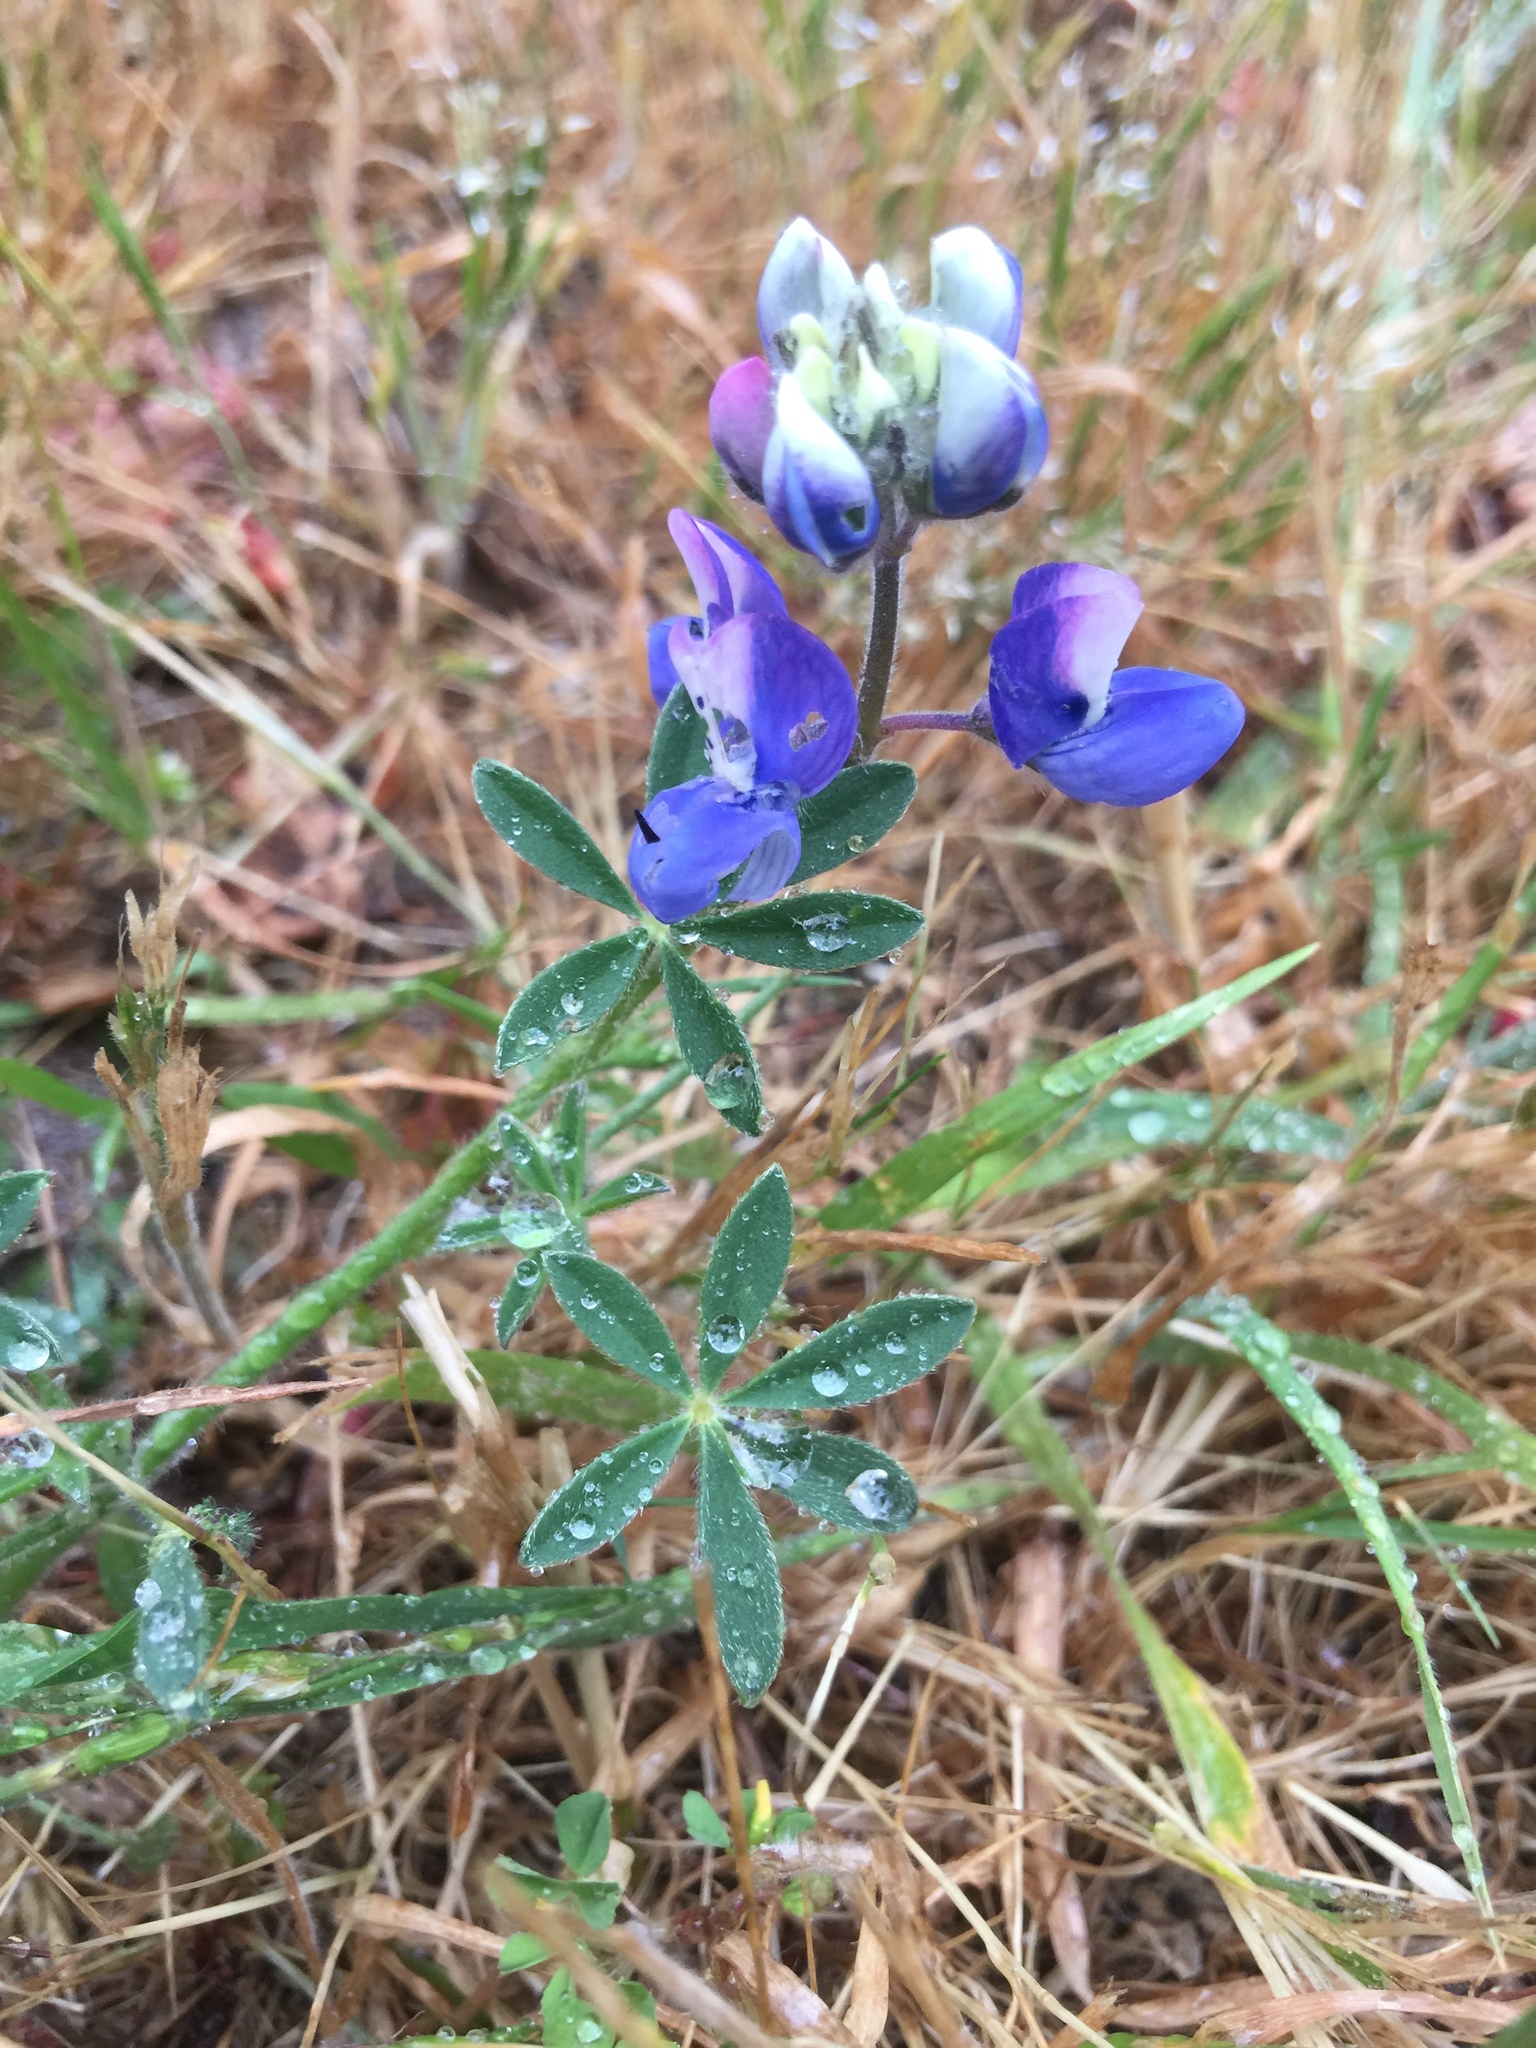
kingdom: Plantae
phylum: Tracheophyta
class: Magnoliopsida
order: Fabales
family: Fabaceae
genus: Lupinus
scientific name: Lupinus nanus
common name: Orean blue lupin
